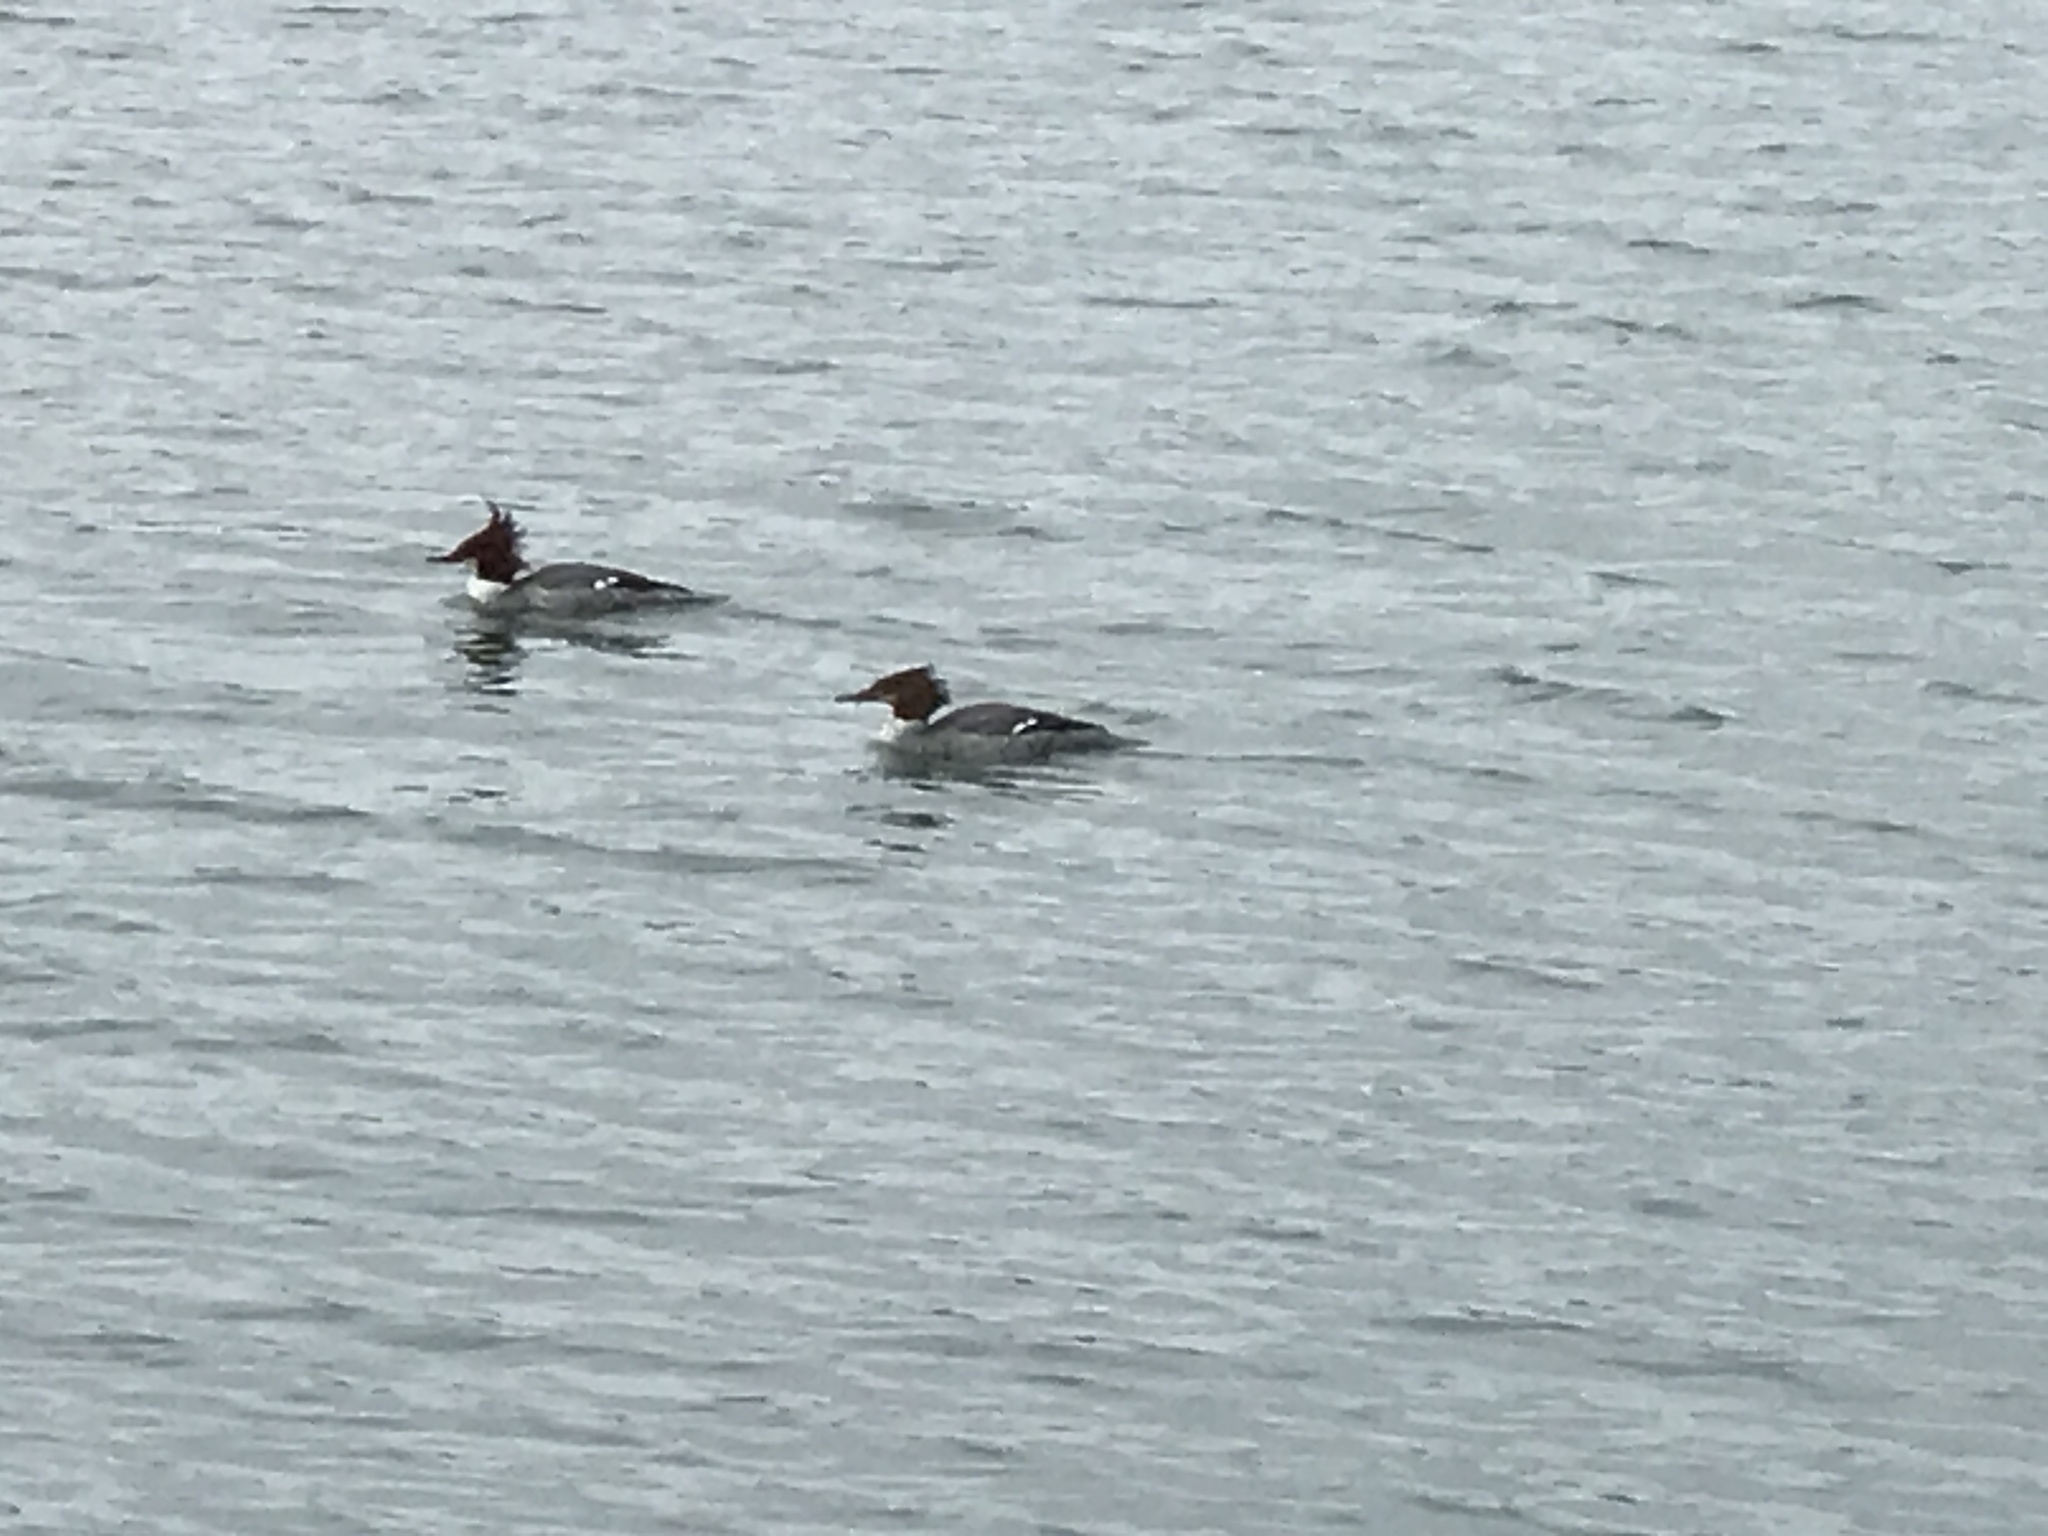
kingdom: Animalia
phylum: Chordata
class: Aves
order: Anseriformes
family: Anatidae
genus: Mergus
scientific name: Mergus merganser
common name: Common merganser
